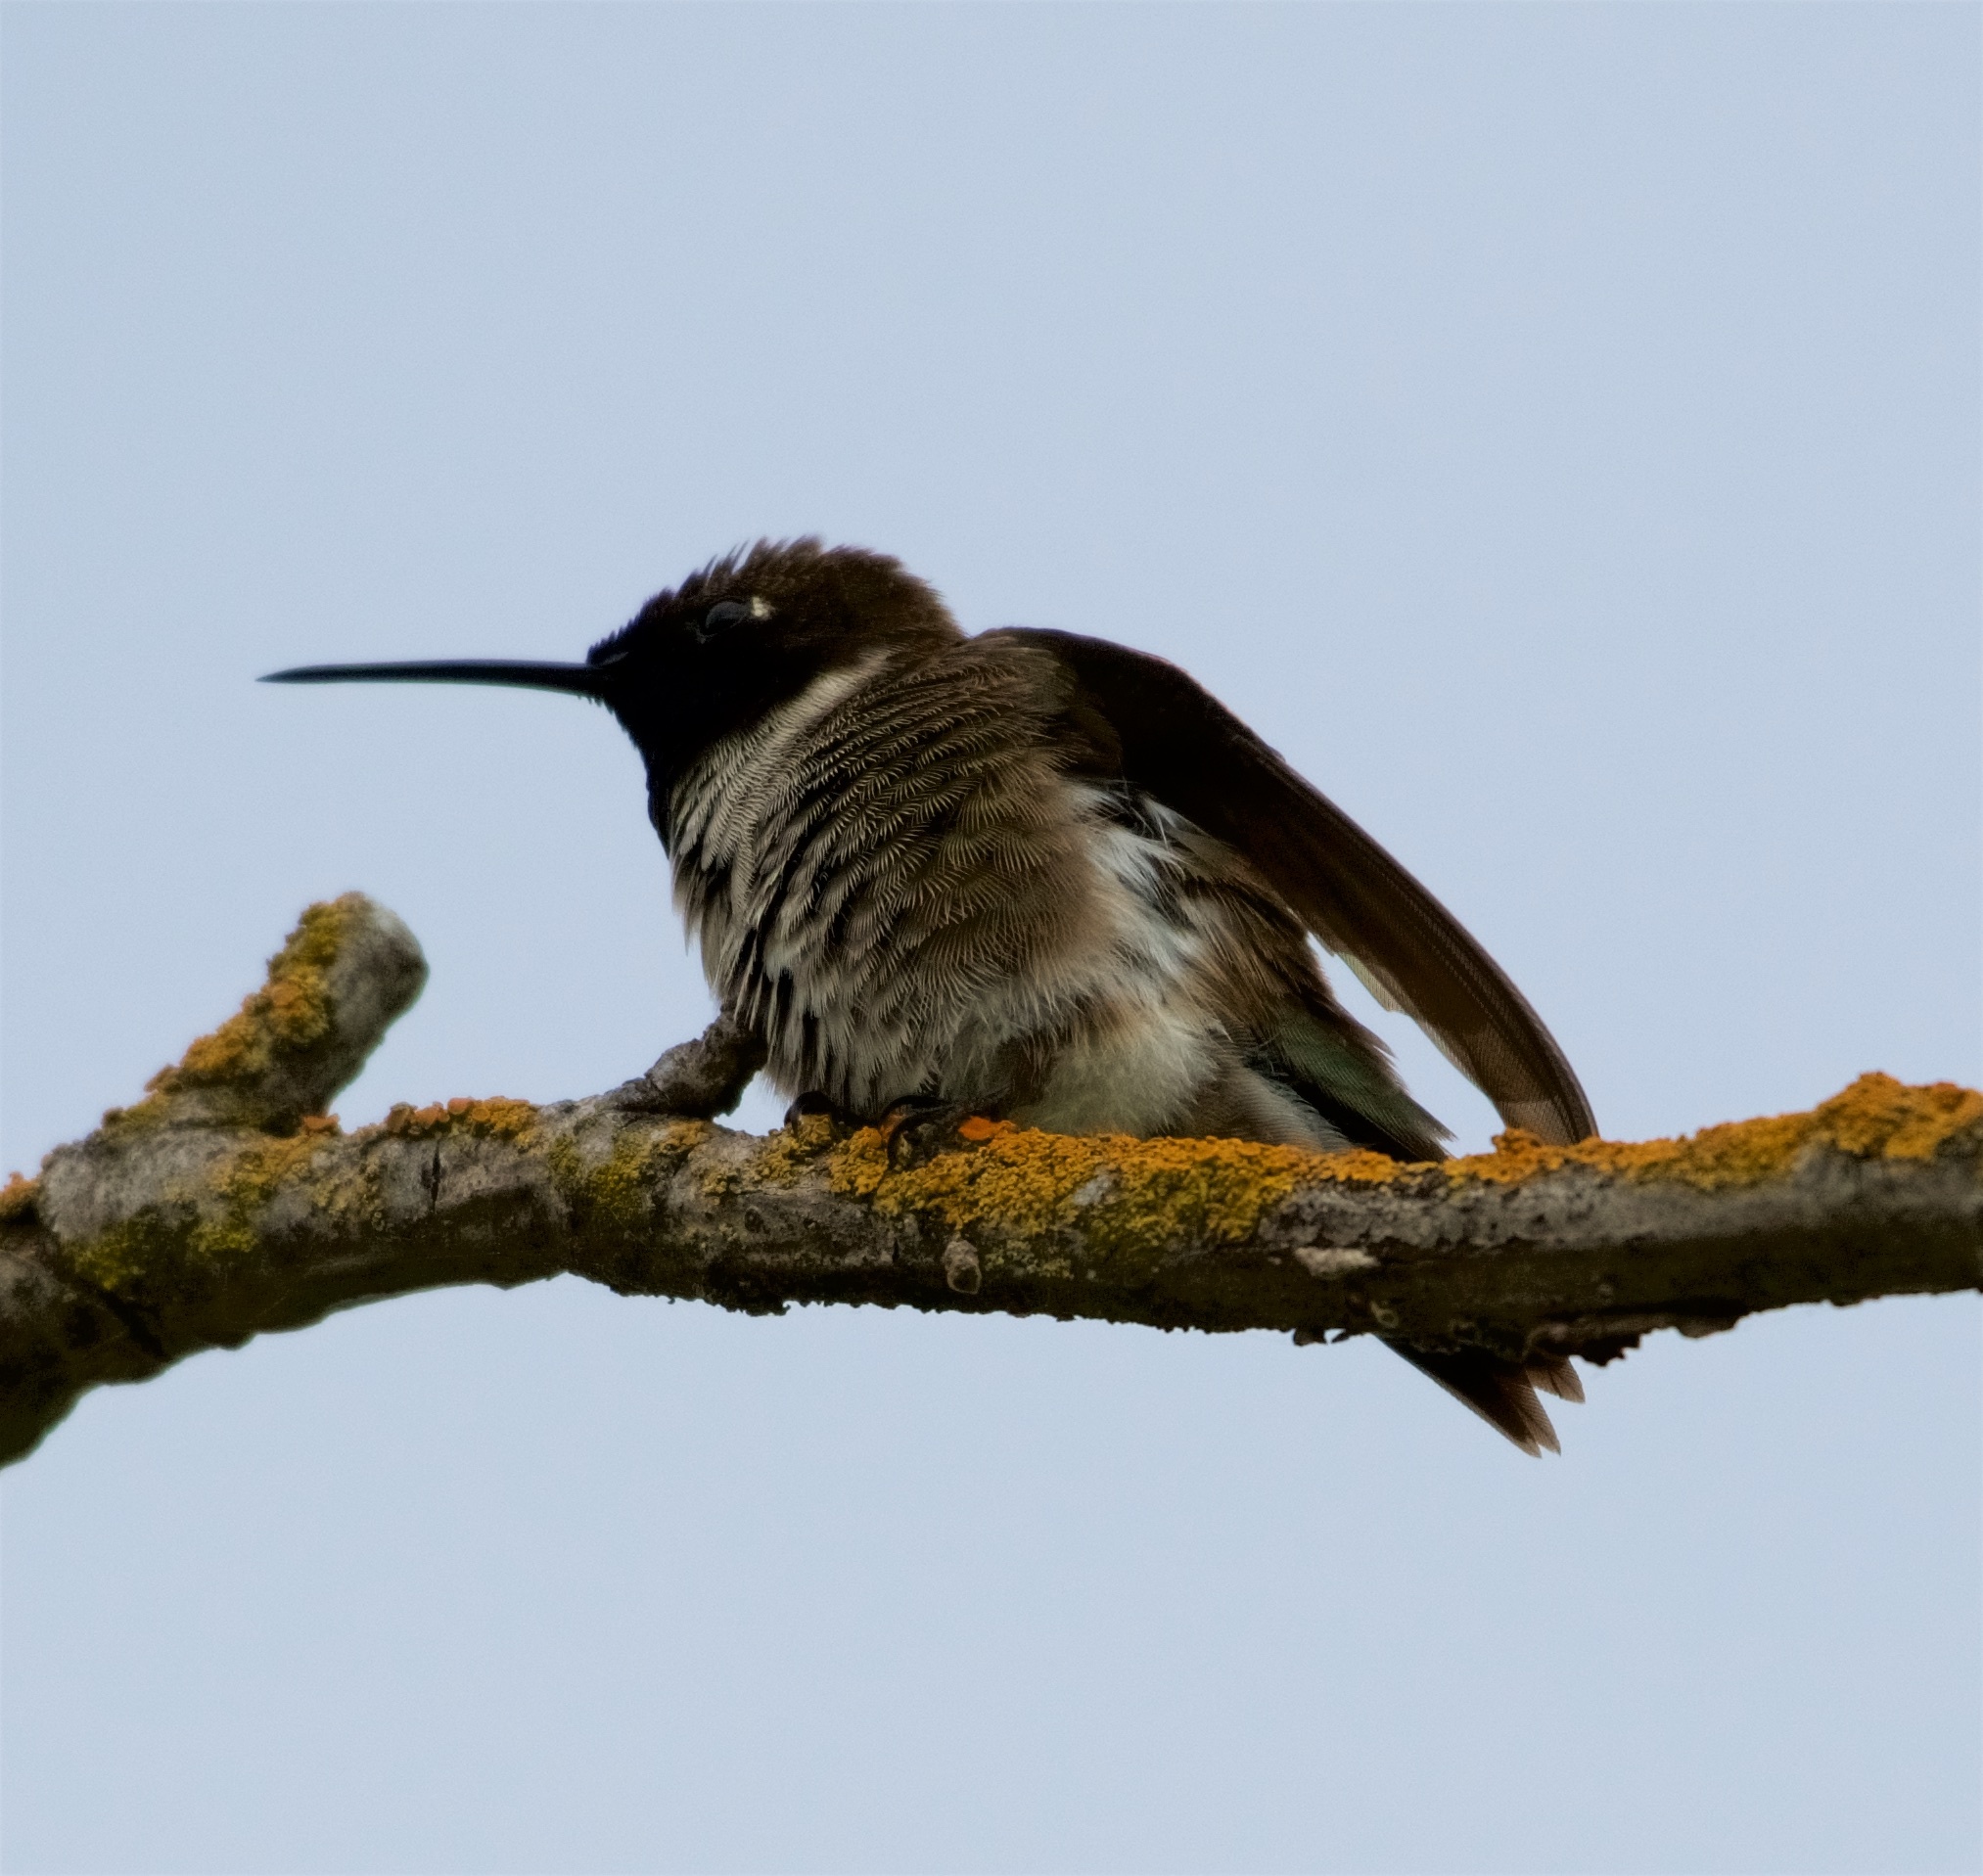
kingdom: Animalia
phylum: Chordata
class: Aves
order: Apodiformes
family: Trochilidae
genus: Archilochus
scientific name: Archilochus alexandri
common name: Black-chinned hummingbird
